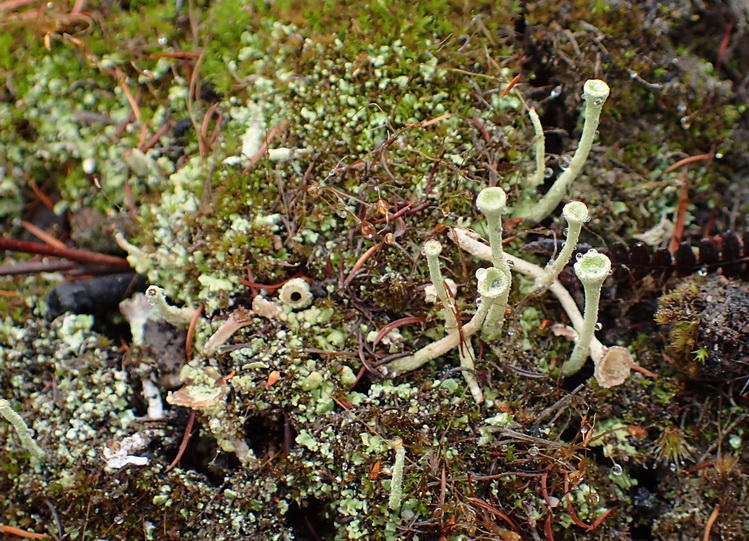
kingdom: Fungi
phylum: Ascomycota
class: Lecanoromycetes
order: Lecanorales
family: Cladoniaceae
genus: Cladonia
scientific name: Cladonia fimbriata
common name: Powdered trumpet lichen
